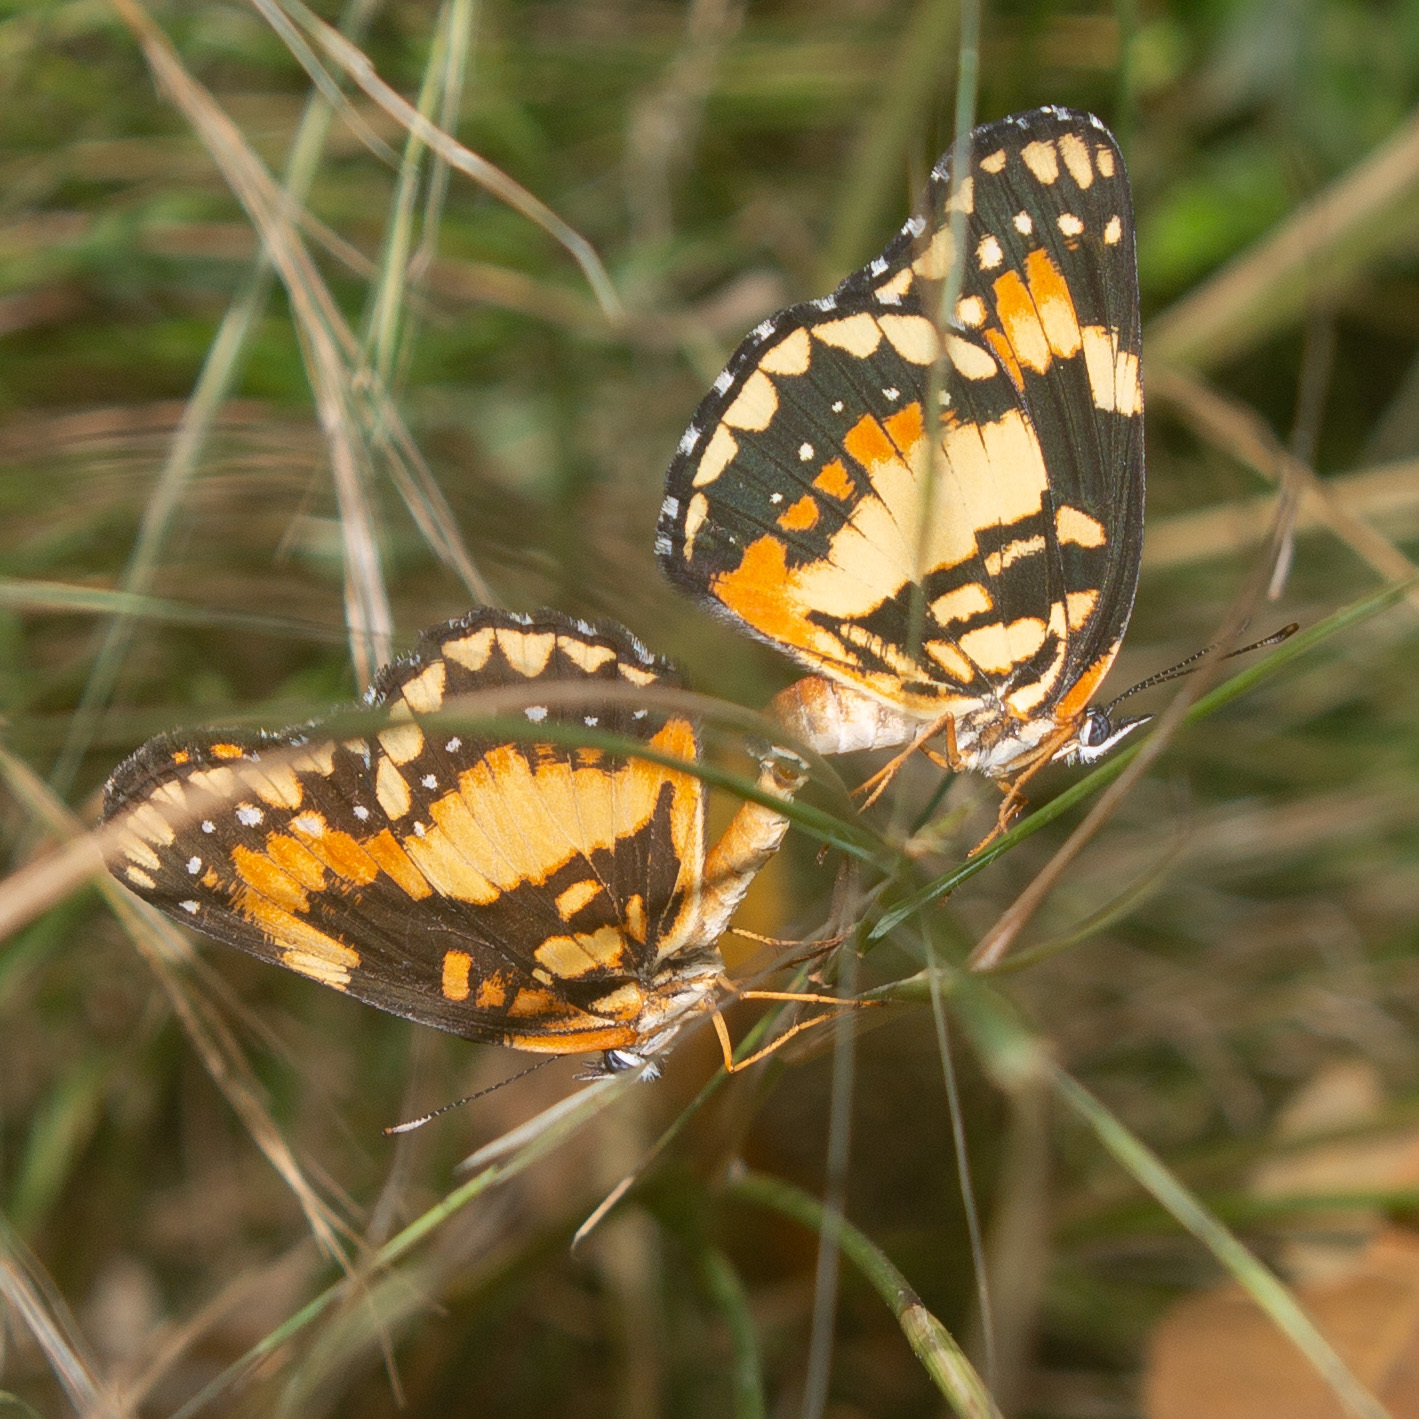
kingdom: Animalia
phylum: Arthropoda
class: Insecta
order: Lepidoptera
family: Nymphalidae
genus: Chlosyne
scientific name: Chlosyne lacinia
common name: Bordered patch
